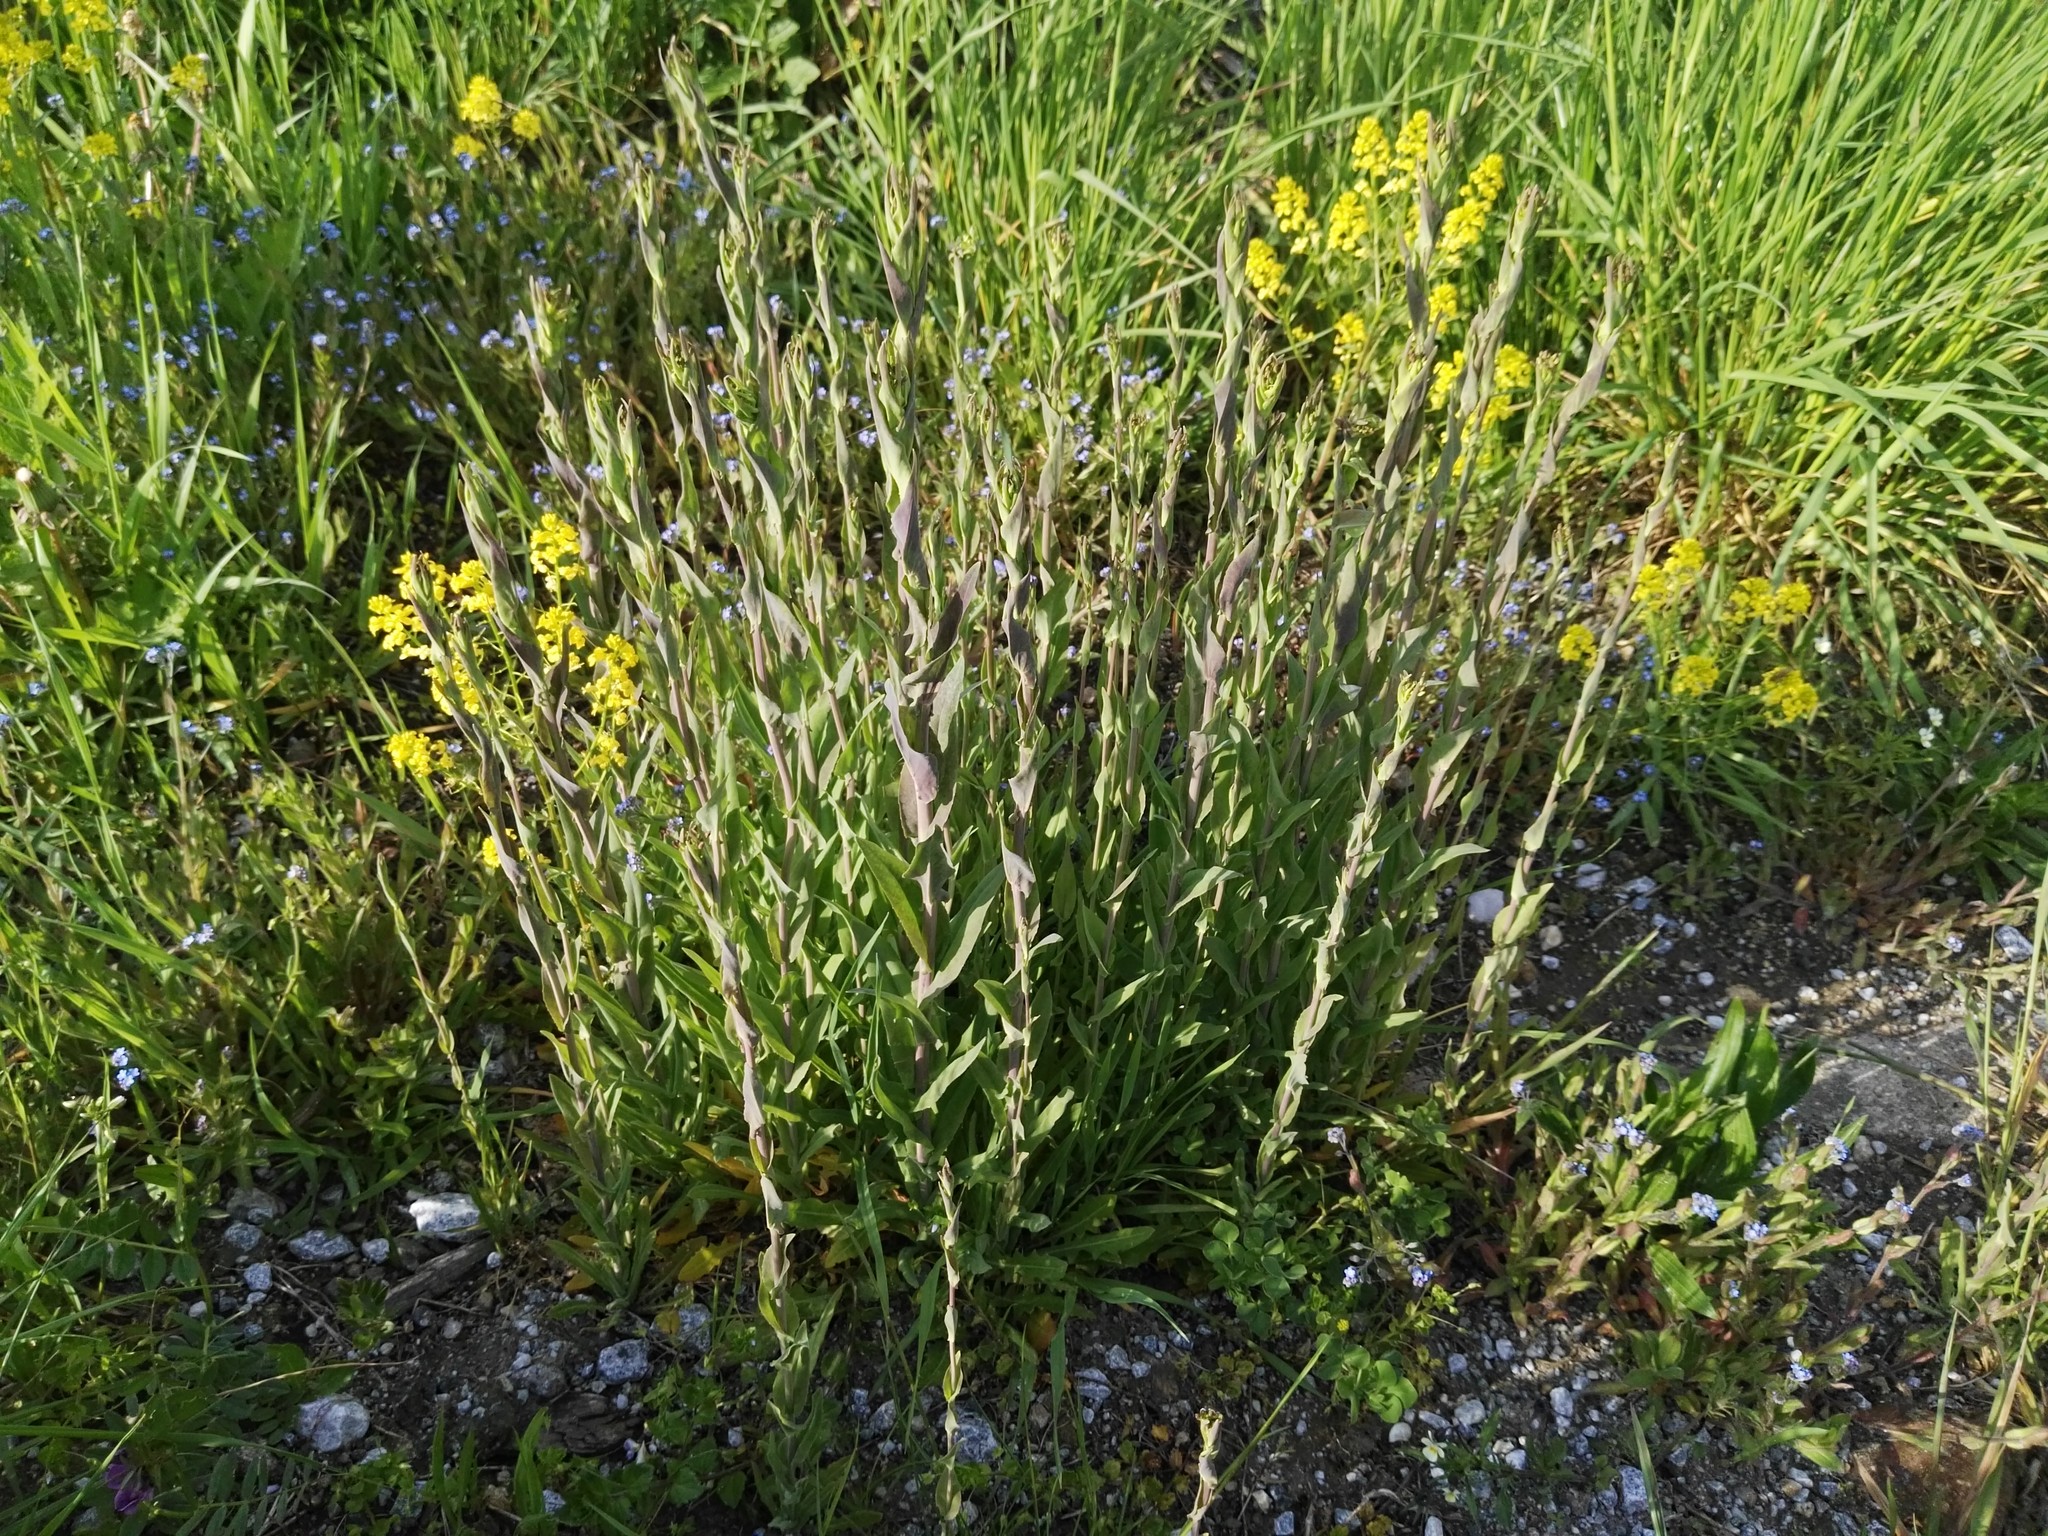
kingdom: Plantae
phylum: Tracheophyta
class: Magnoliopsida
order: Brassicales
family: Brassicaceae
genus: Turritis
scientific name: Turritis glabra
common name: Tower rockcress
